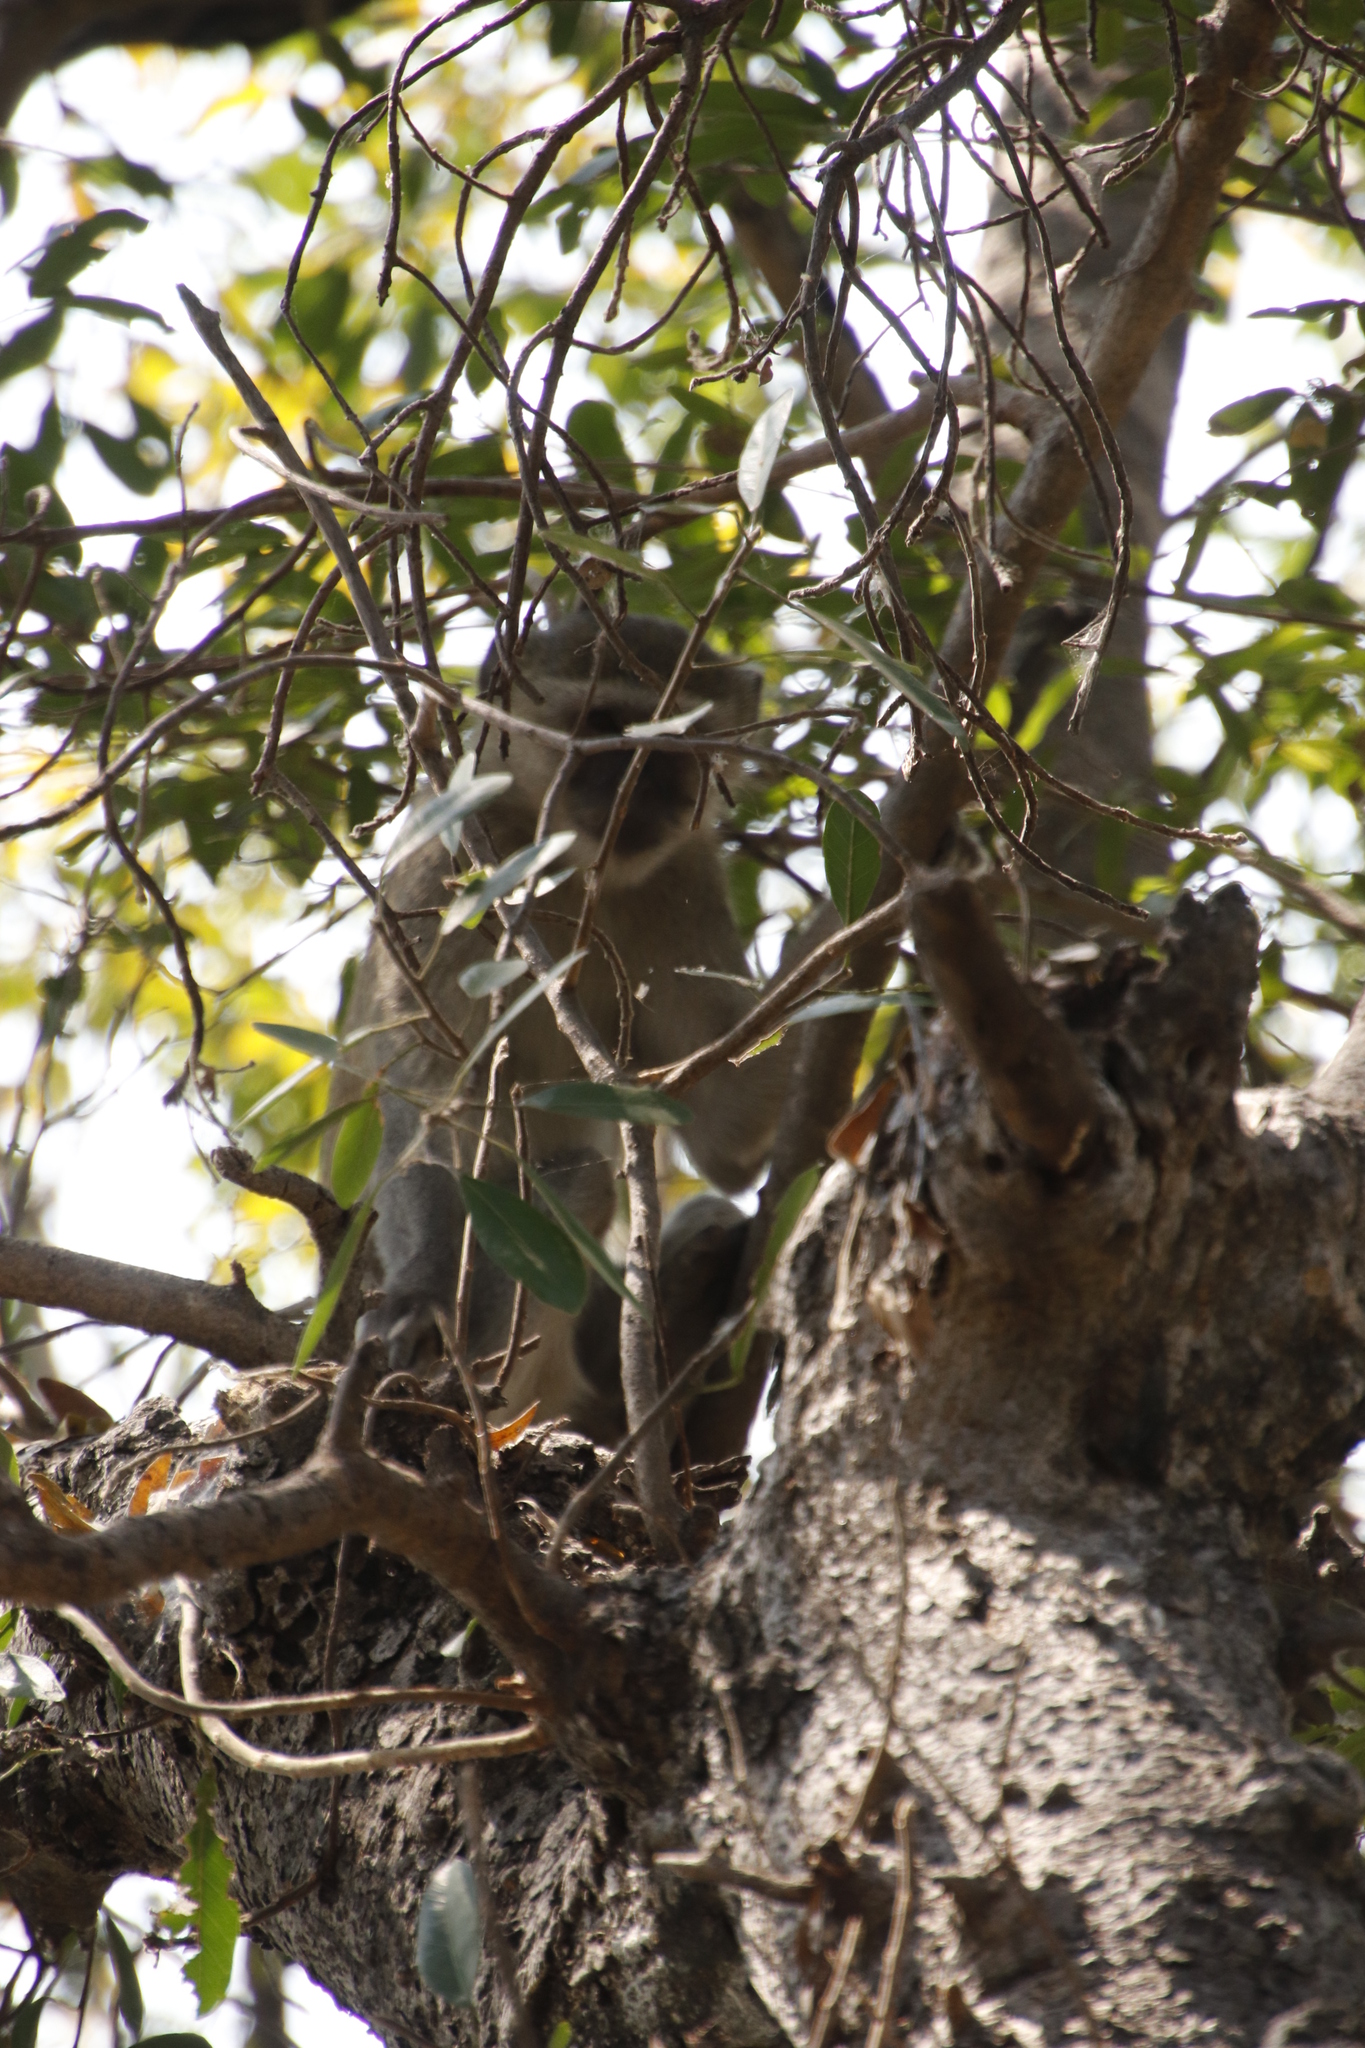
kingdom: Animalia
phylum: Chordata
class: Mammalia
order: Primates
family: Cercopithecidae
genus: Chlorocebus
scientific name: Chlorocebus cynosuros
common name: Malbrouck
